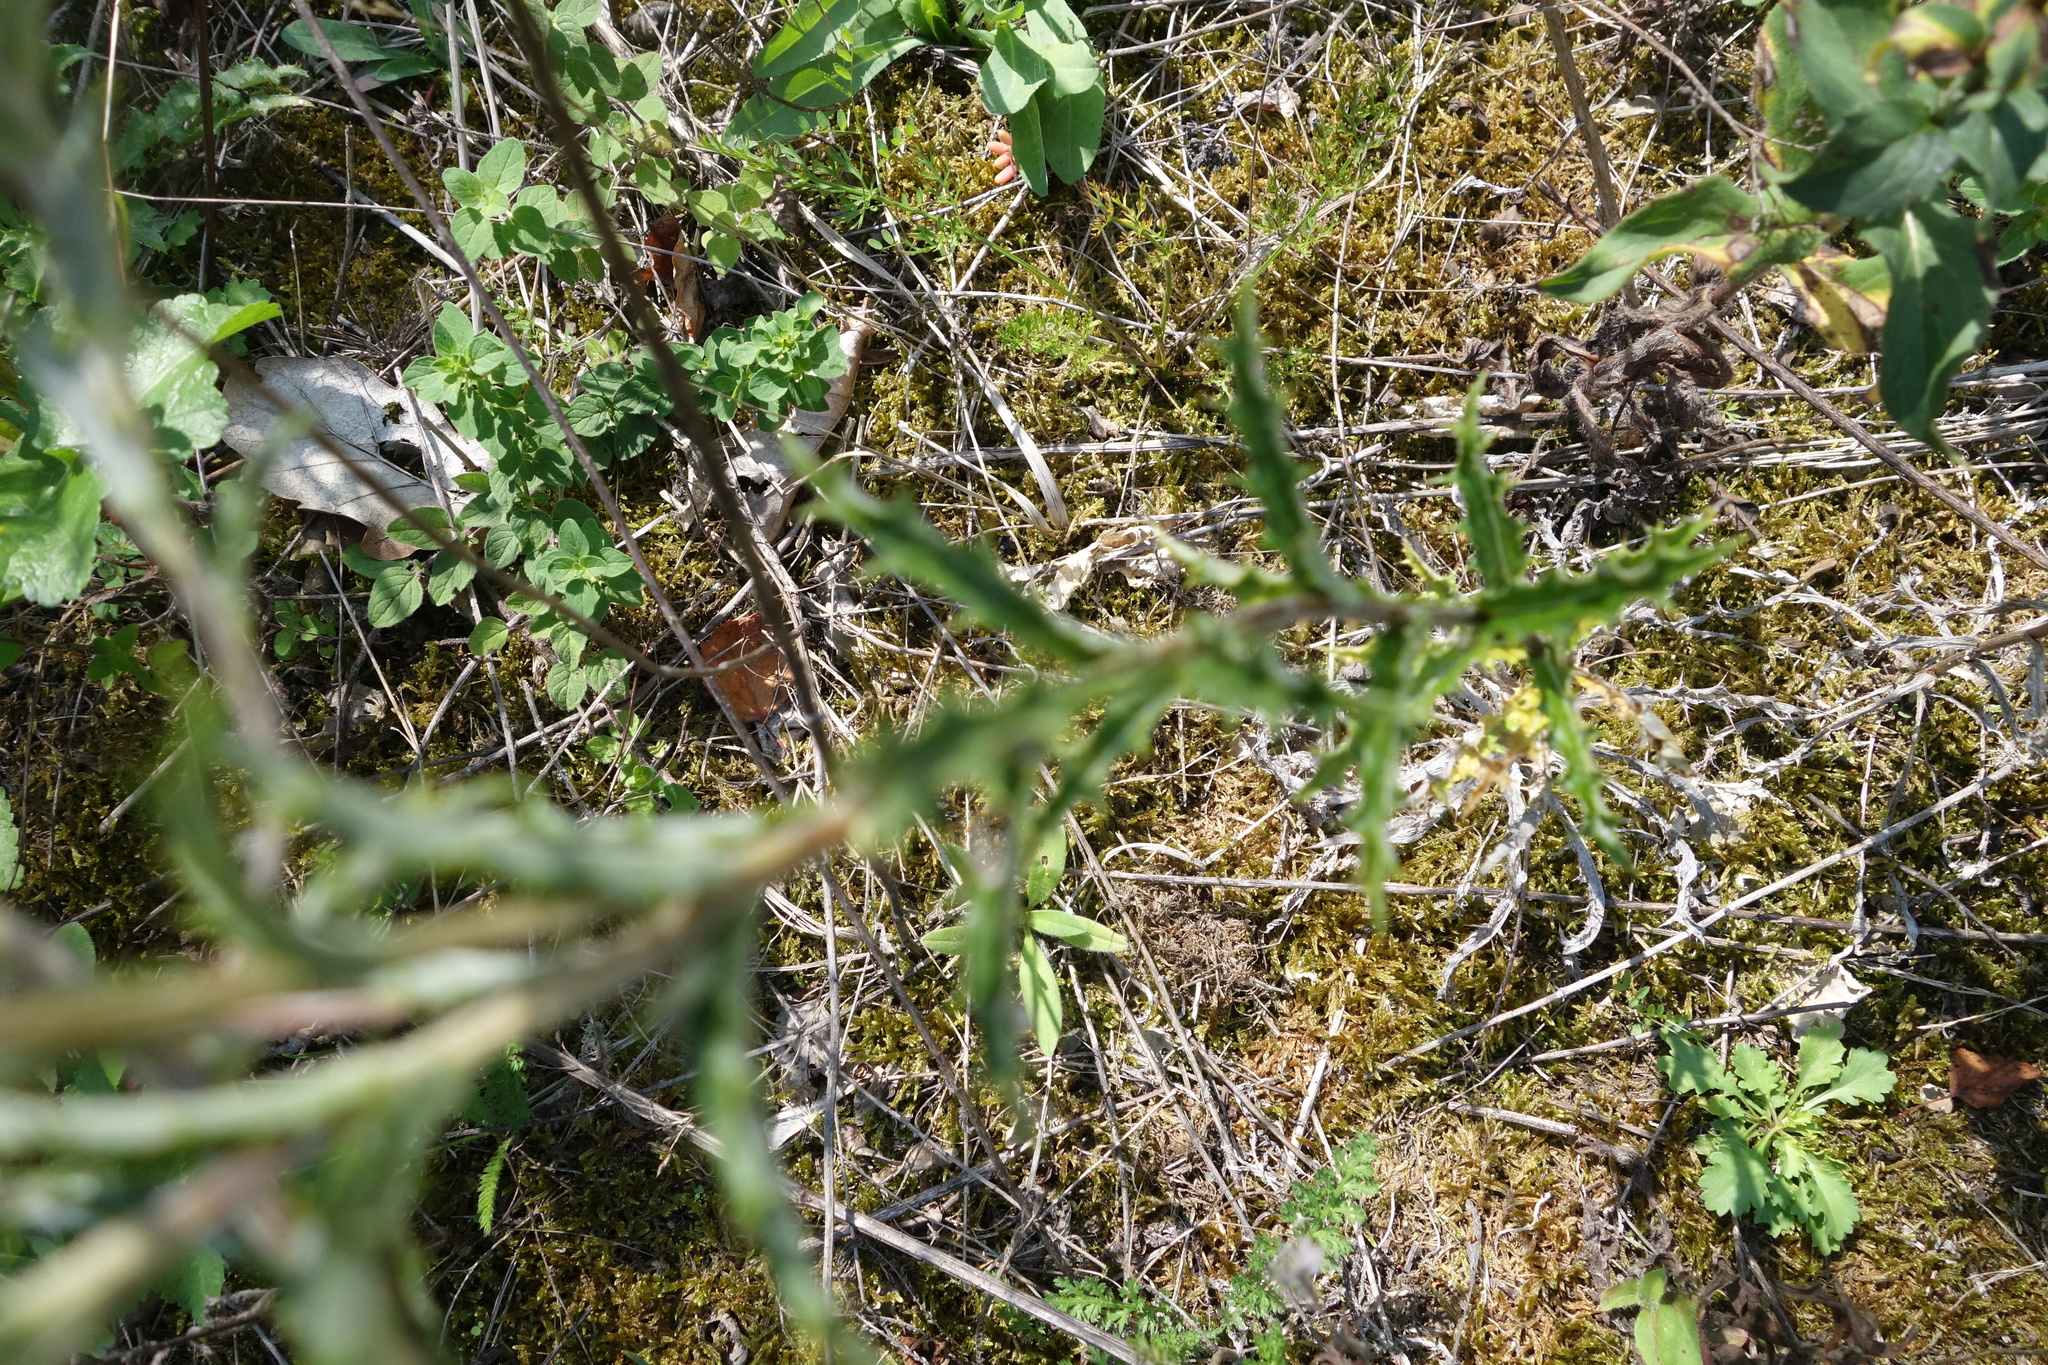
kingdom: Plantae
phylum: Tracheophyta
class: Magnoliopsida
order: Asterales
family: Asteraceae
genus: Carlina
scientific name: Carlina vulgaris
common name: Carline thistle
